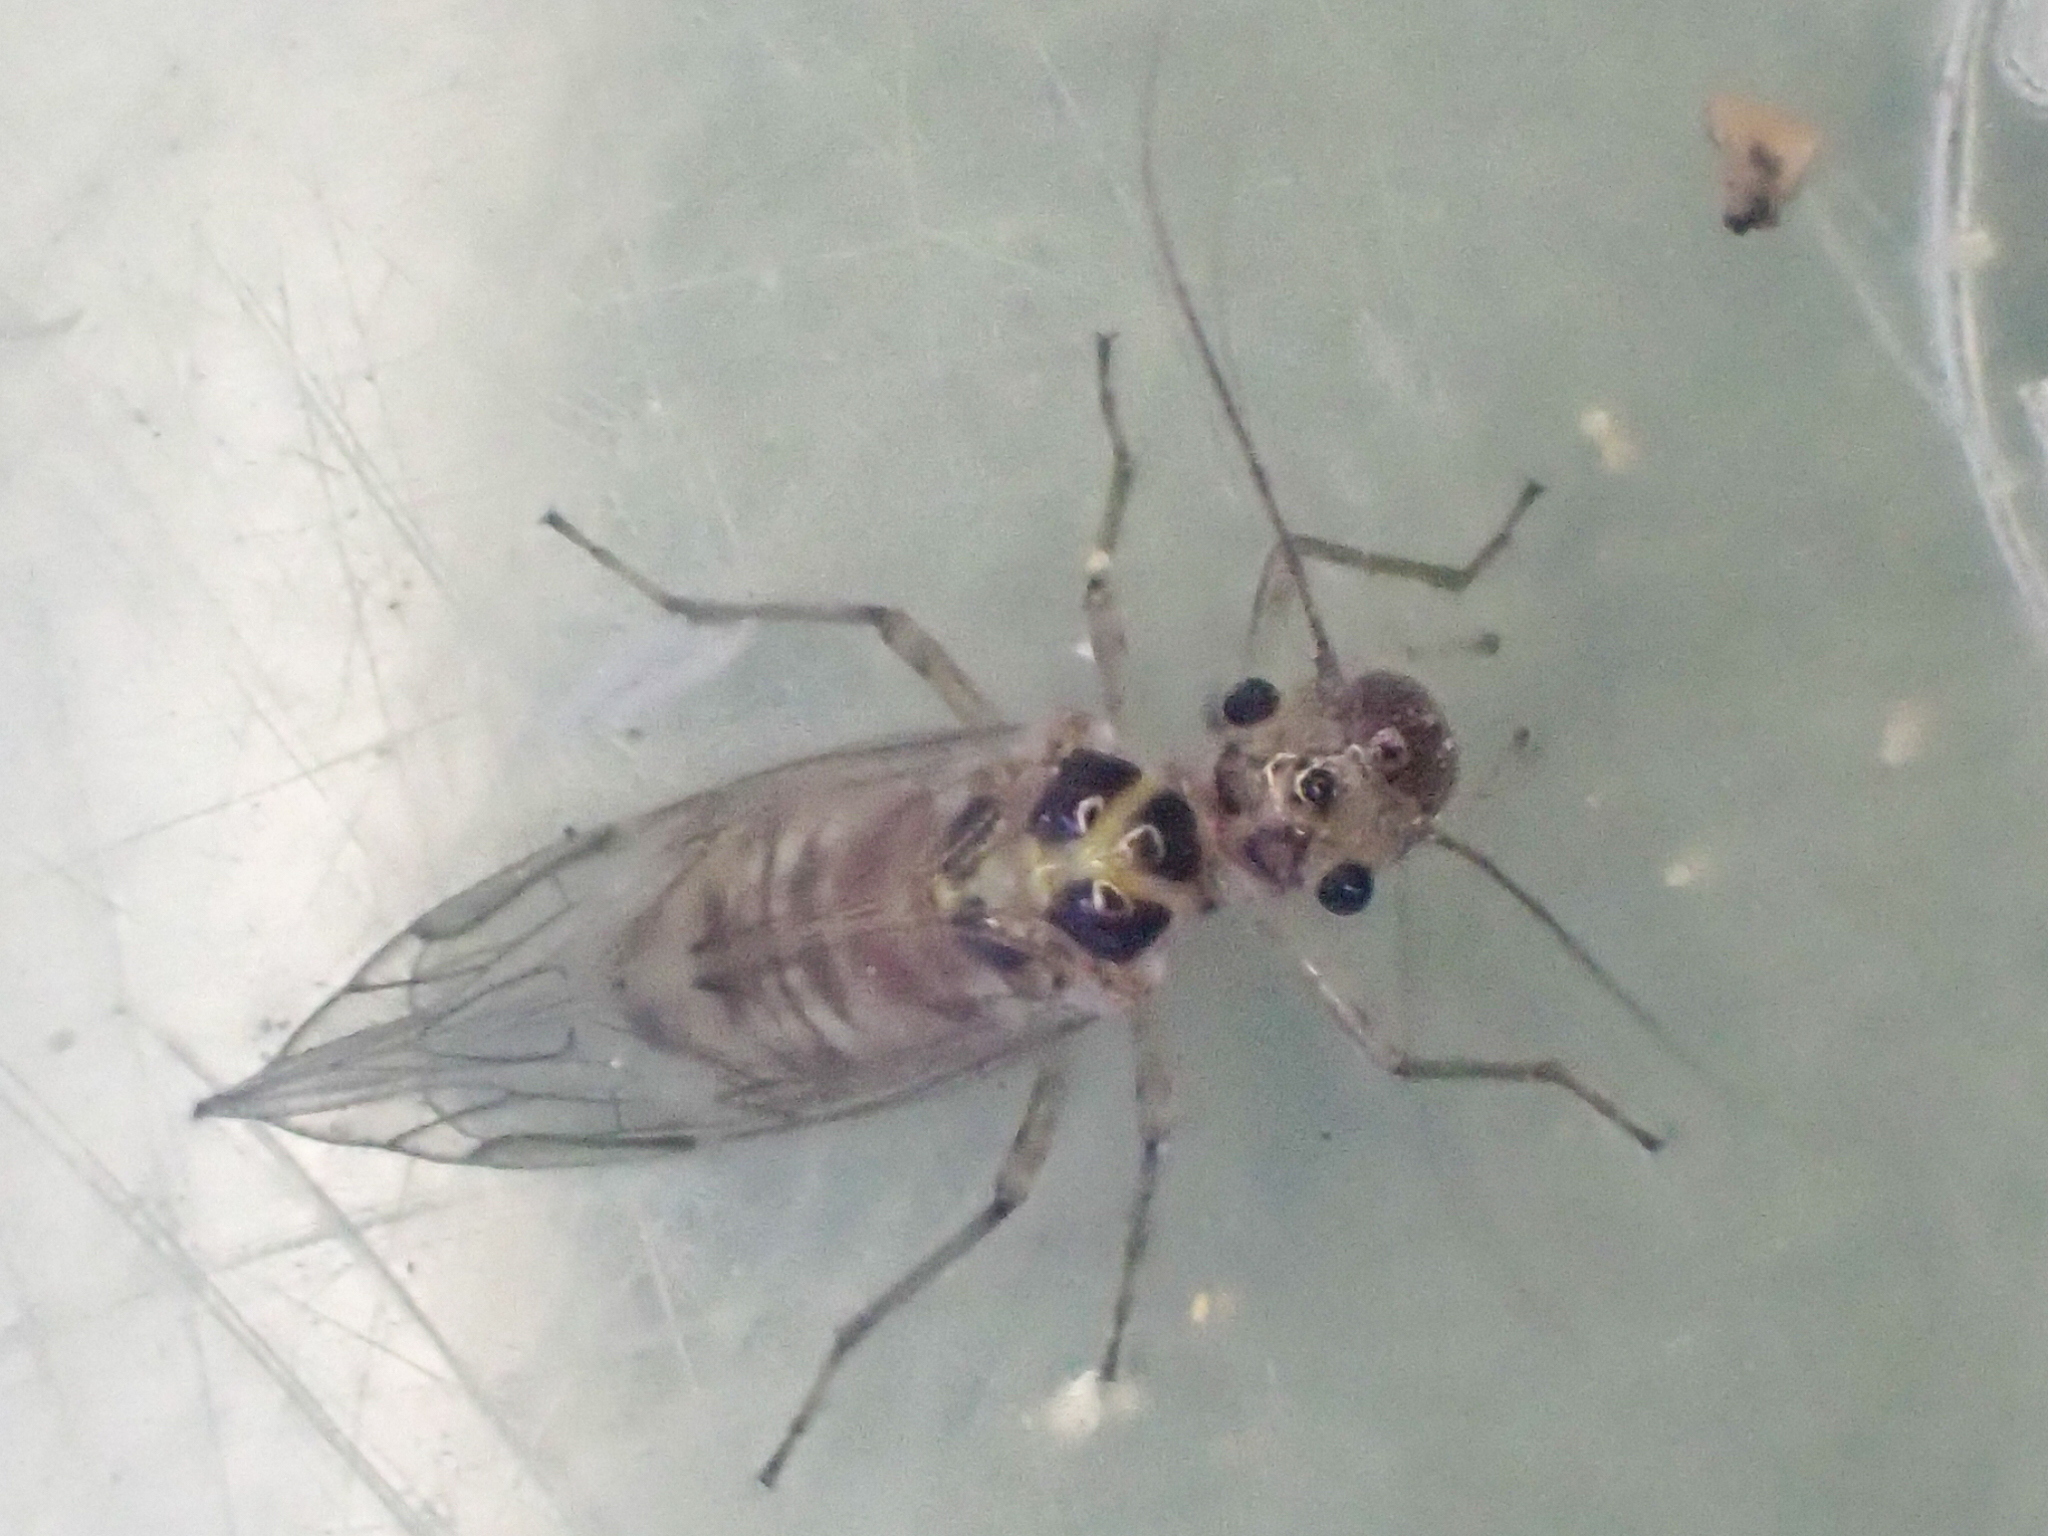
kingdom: Animalia
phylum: Arthropoda
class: Insecta
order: Psocodea
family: Dasydemellidae
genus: Teliapsocus
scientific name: Teliapsocus conterminus
